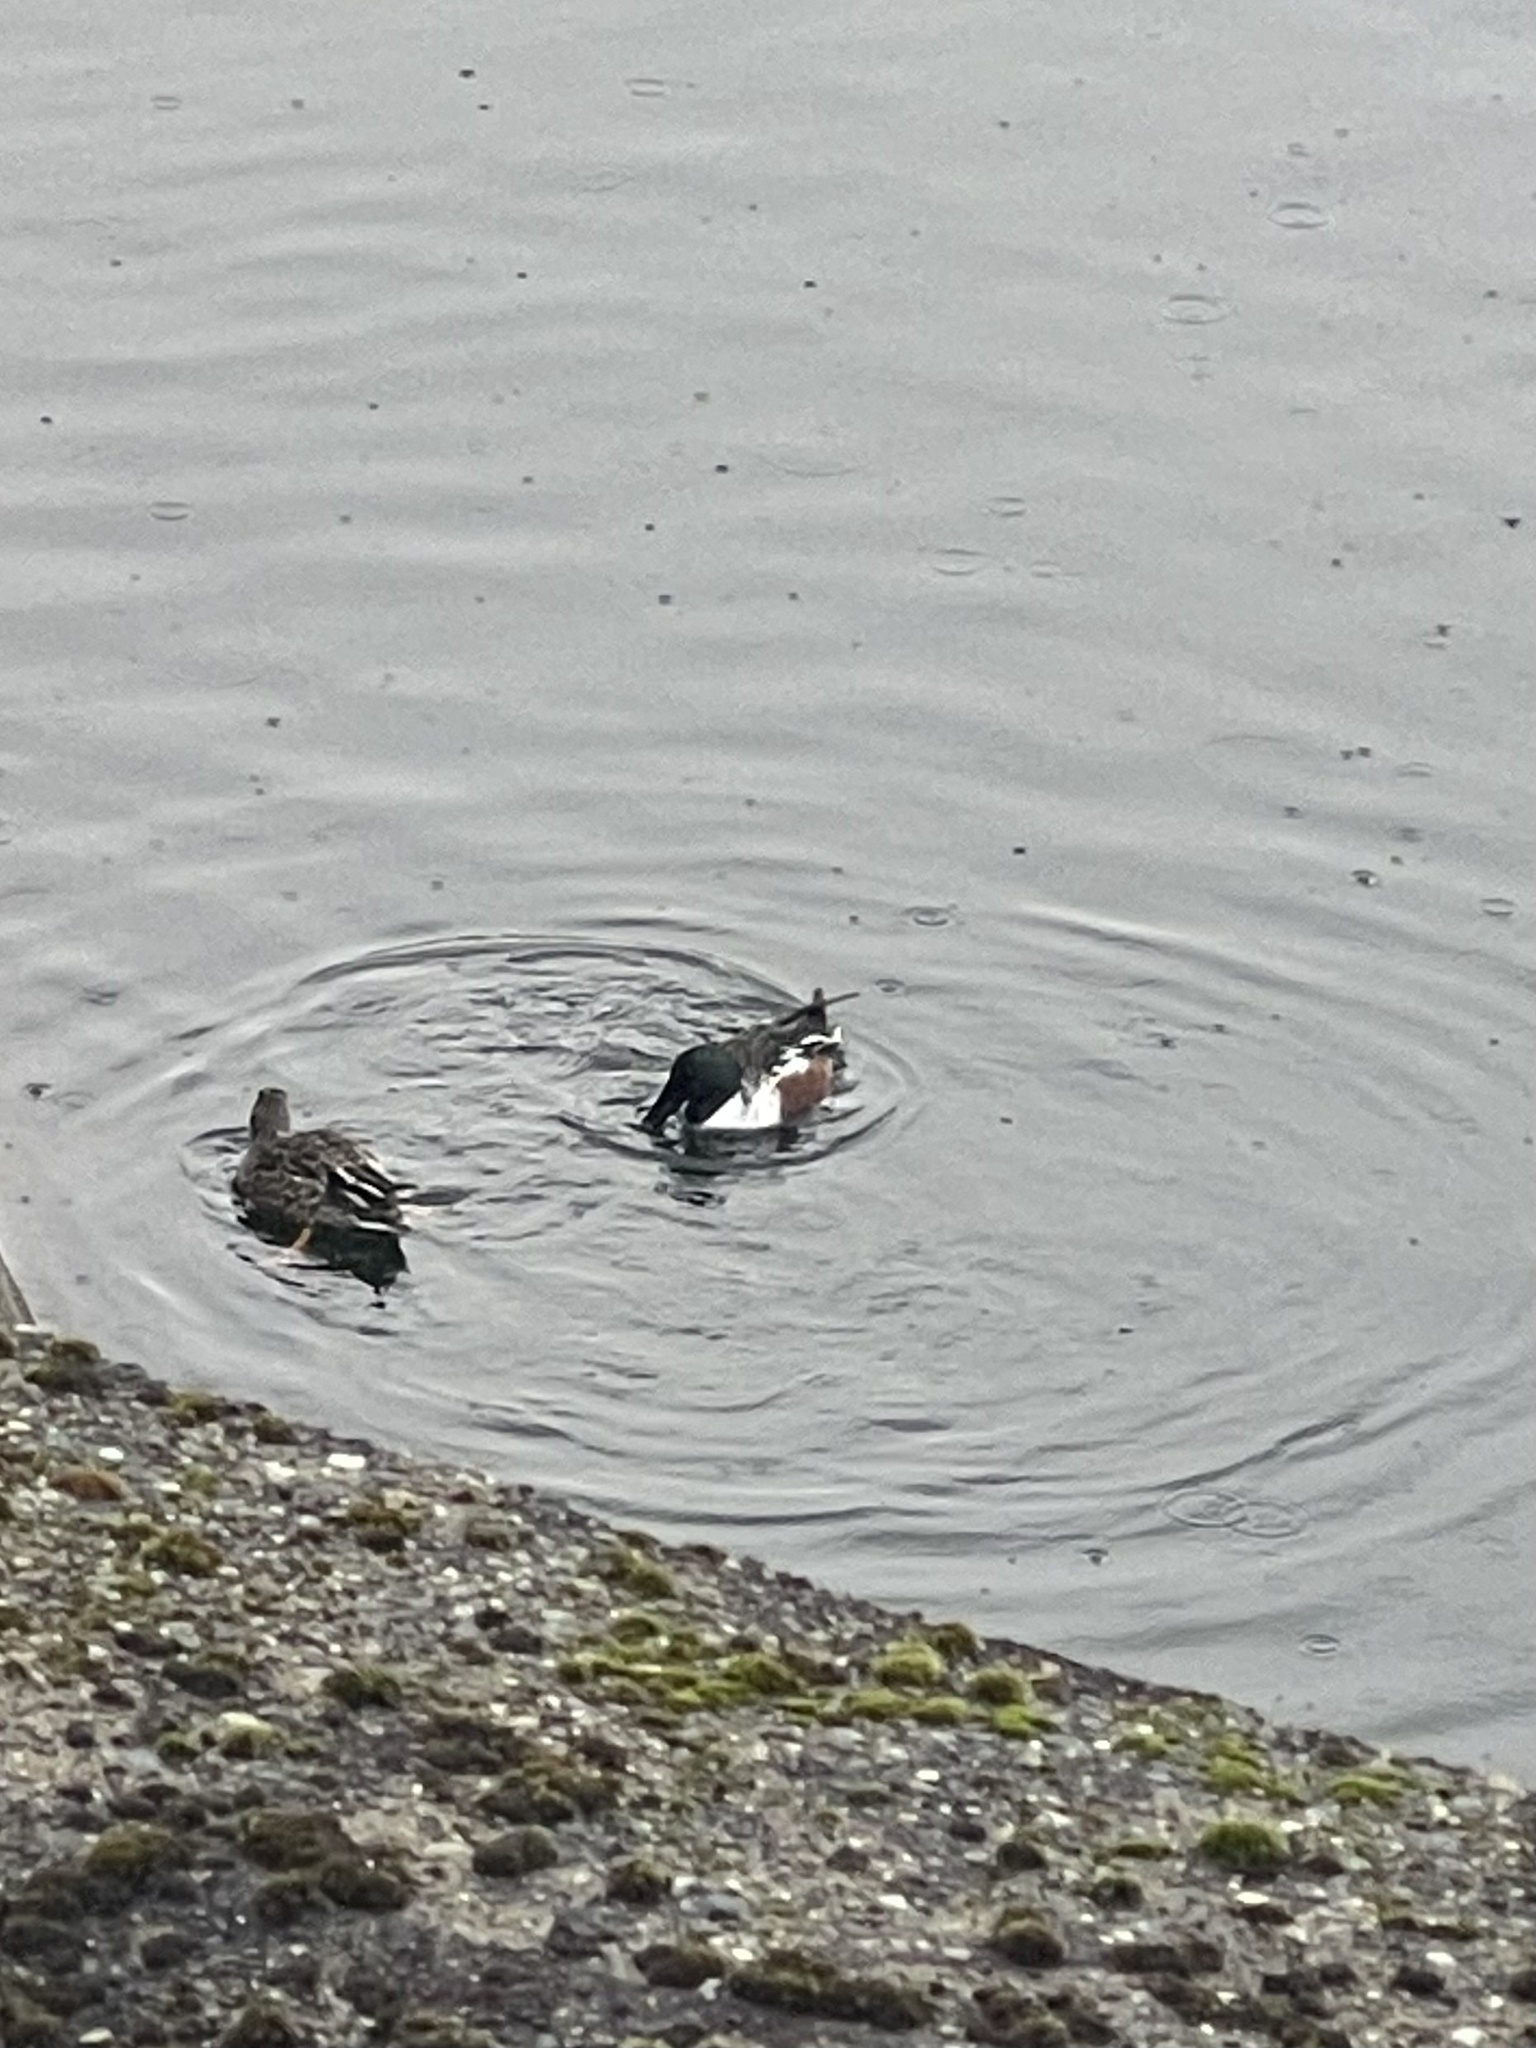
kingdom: Animalia
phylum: Chordata
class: Aves
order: Anseriformes
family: Anatidae
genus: Spatula
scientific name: Spatula clypeata
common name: Northern shoveler
